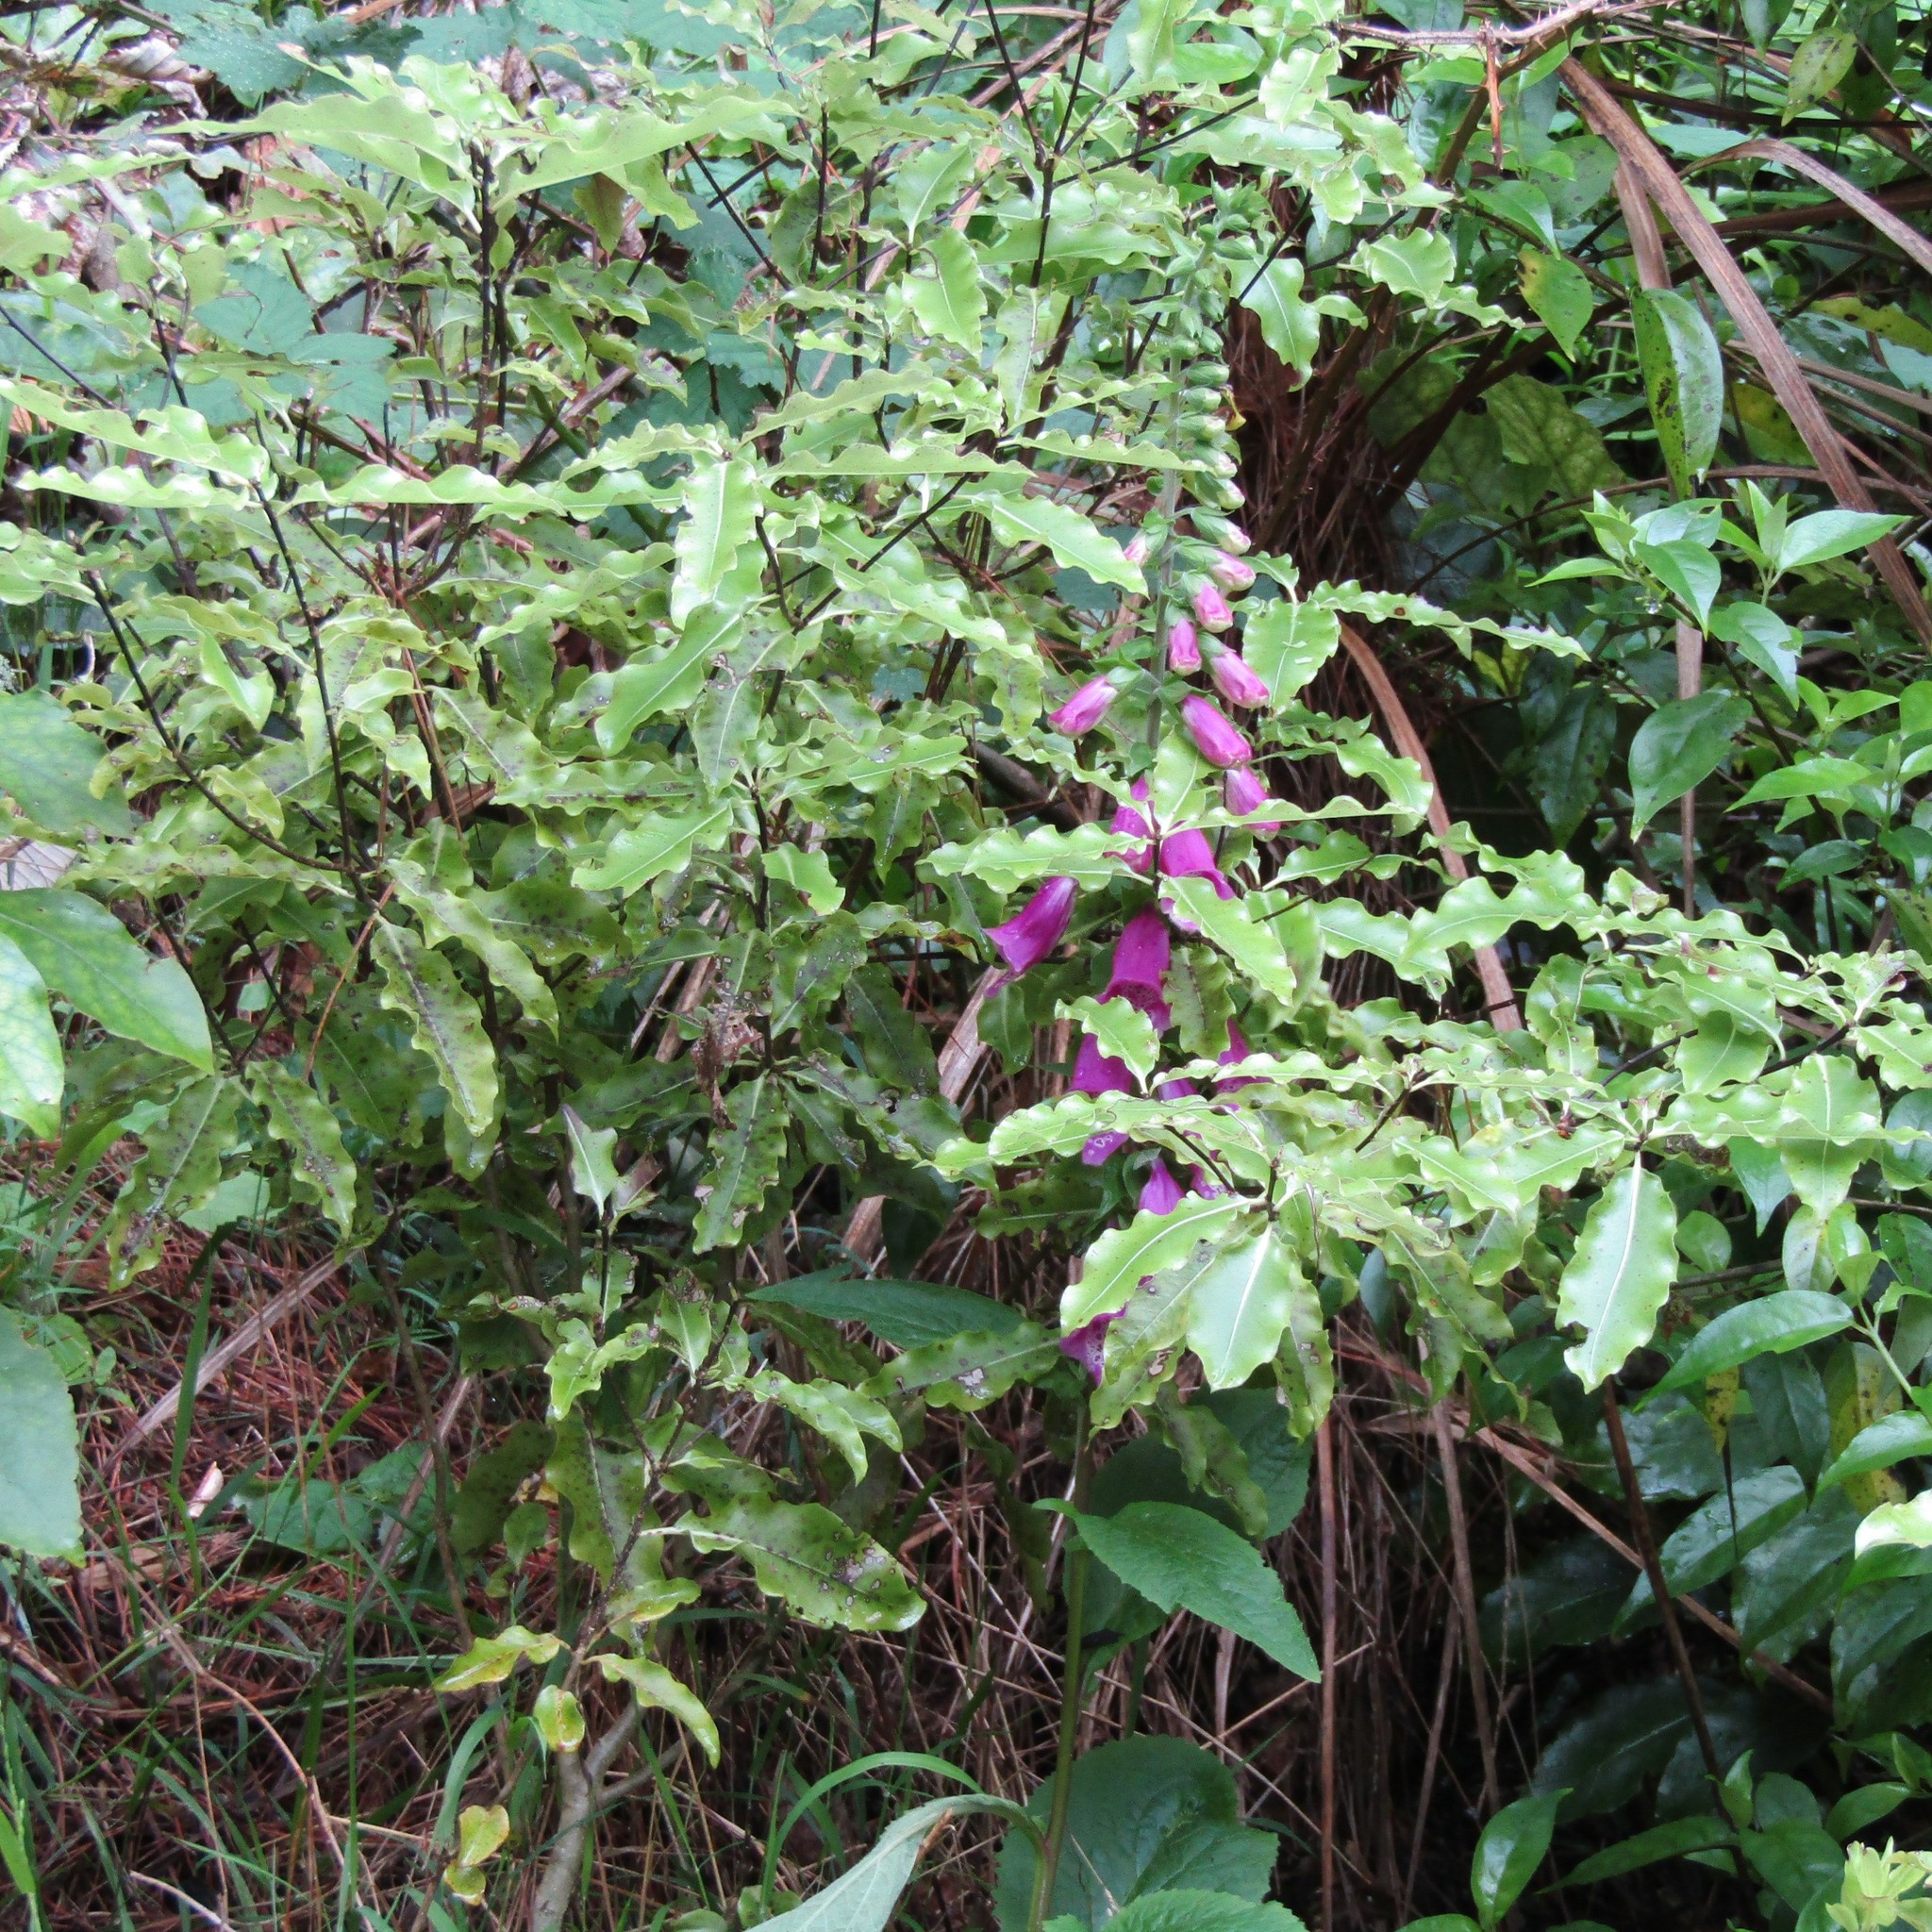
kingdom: Plantae
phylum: Tracheophyta
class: Magnoliopsida
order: Apiales
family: Pittosporaceae
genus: Pittosporum
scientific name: Pittosporum eugenioides
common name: Lemonwood
